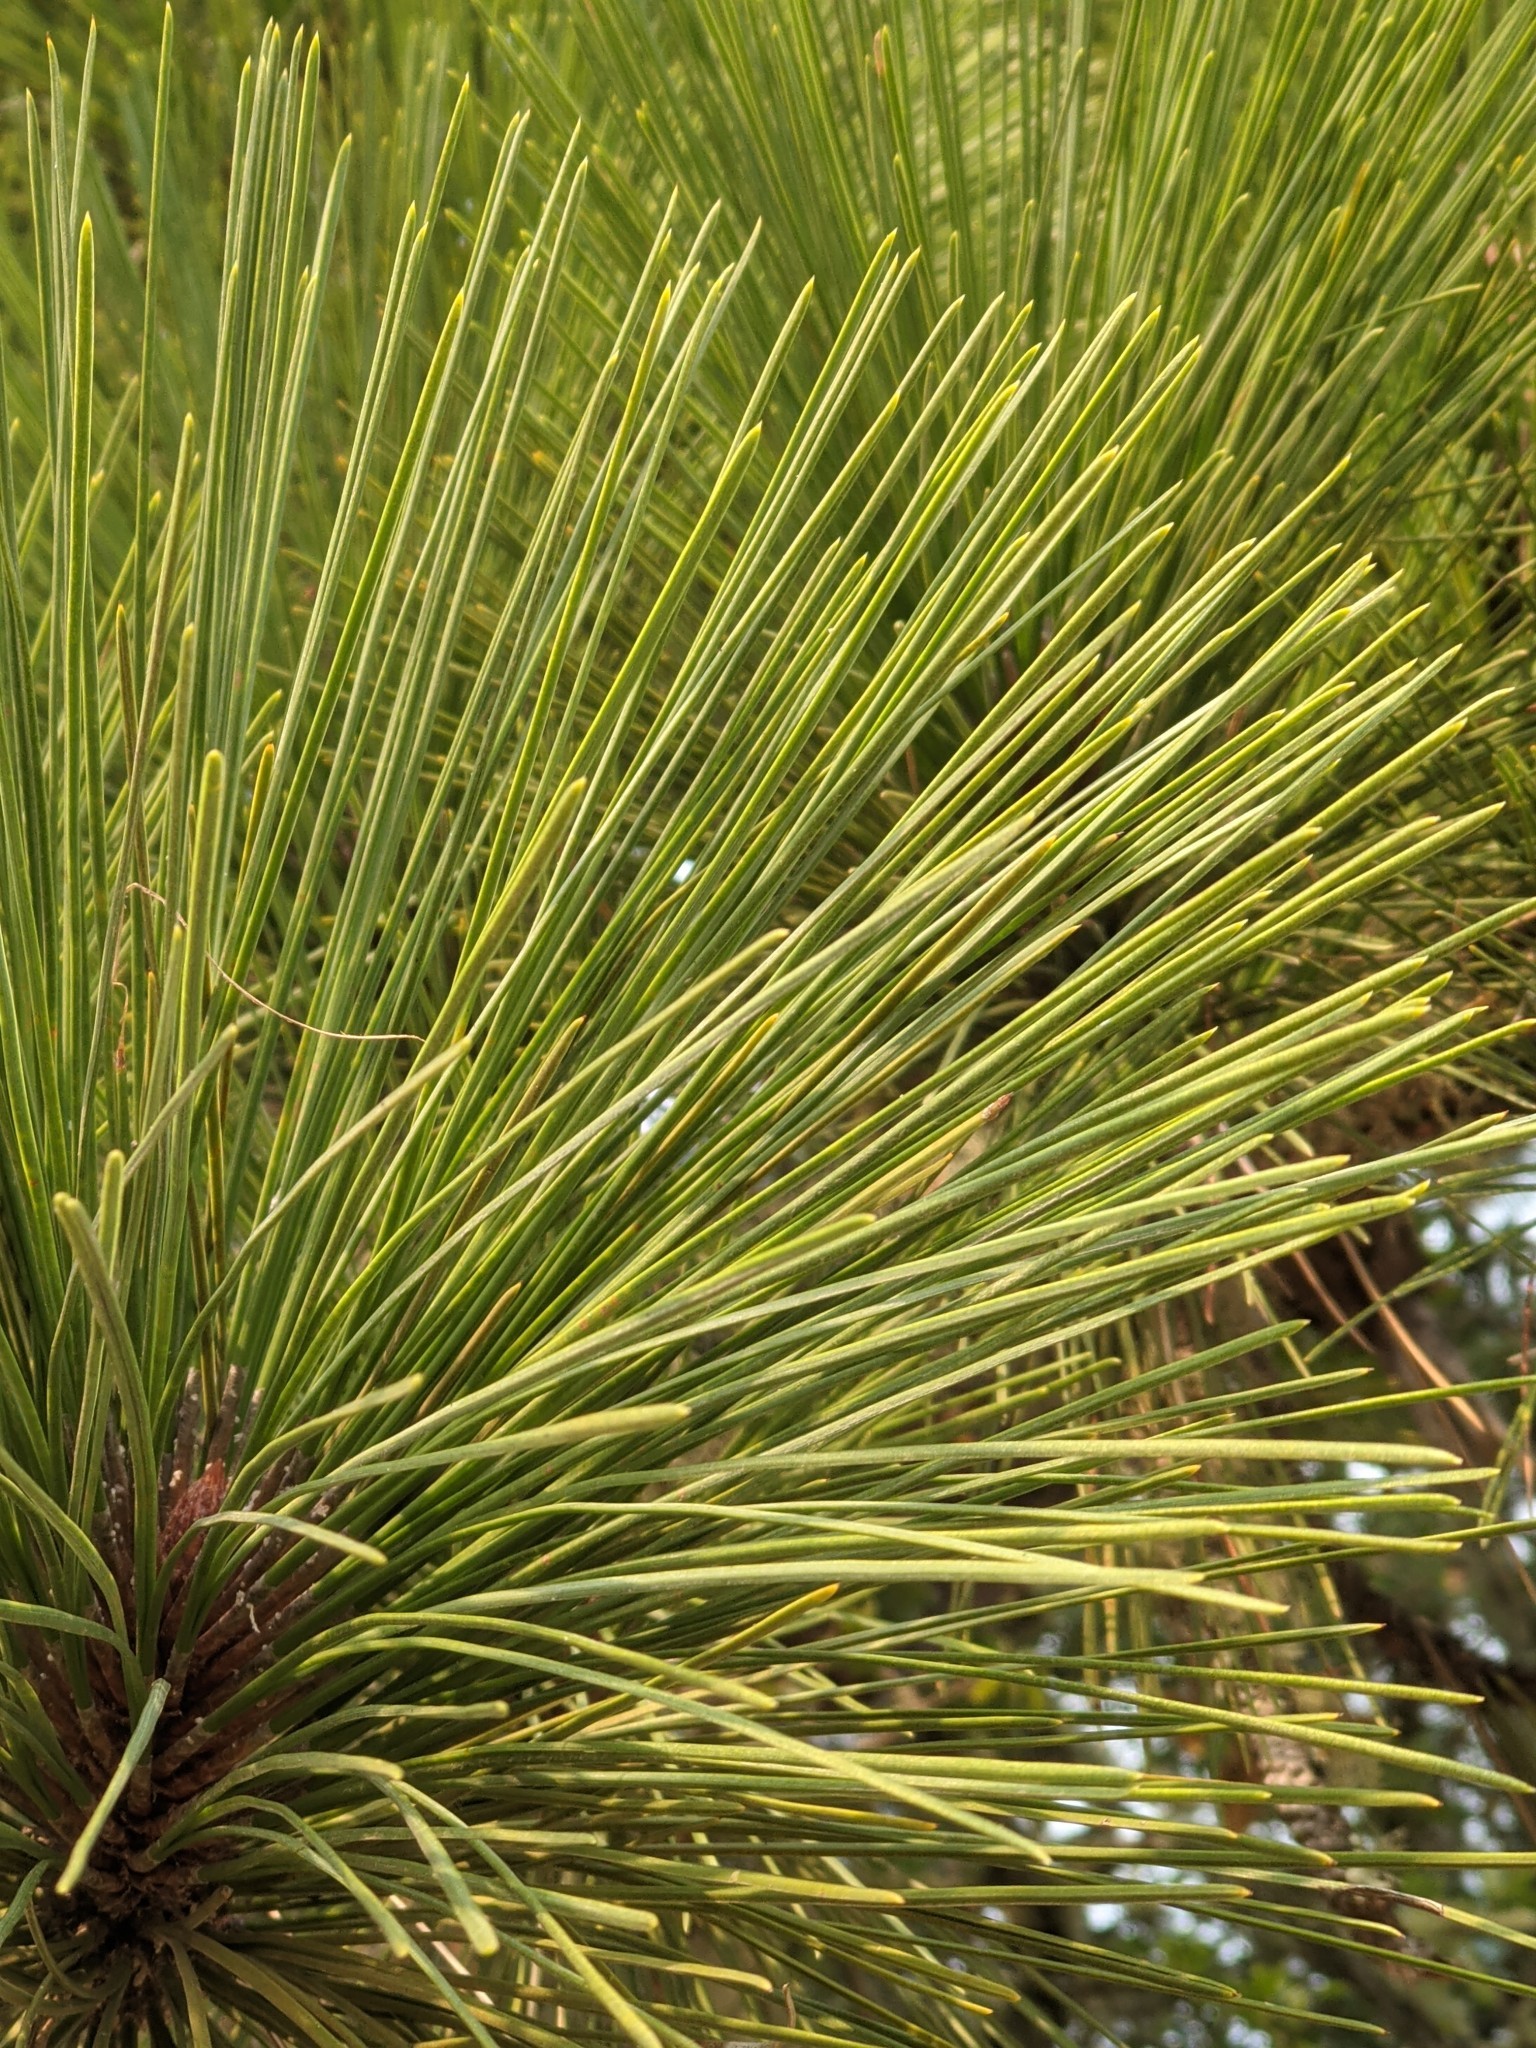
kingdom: Plantae
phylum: Tracheophyta
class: Pinopsida
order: Pinales
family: Pinaceae
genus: Pinus
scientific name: Pinus ponderosa
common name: Western yellow-pine
